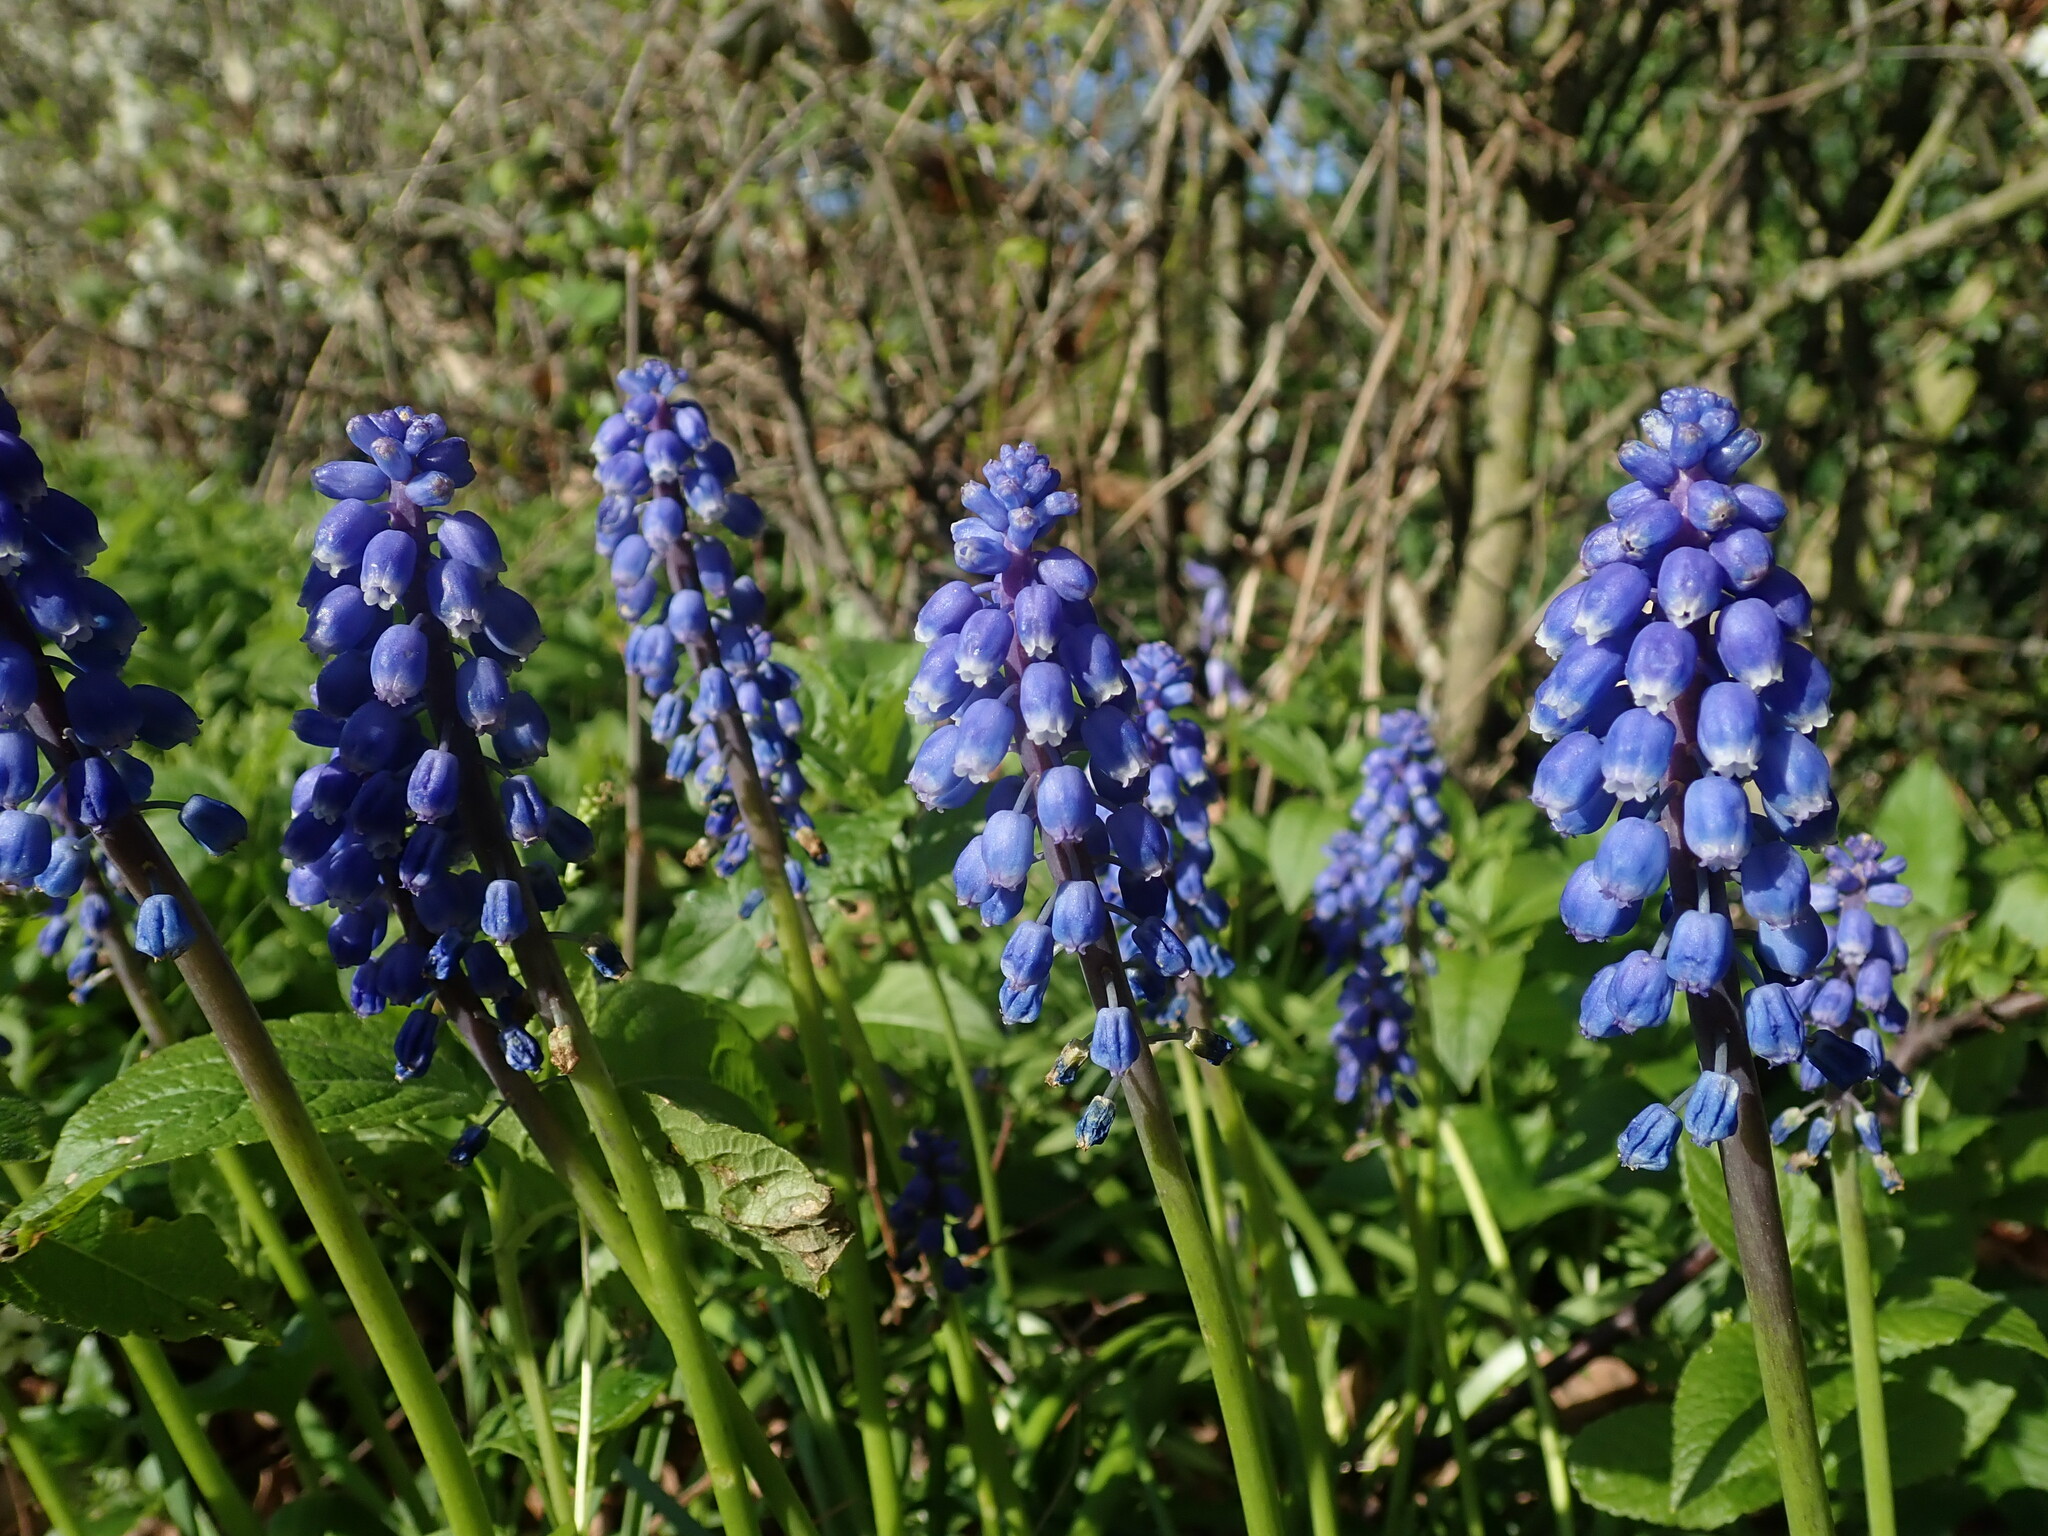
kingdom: Plantae
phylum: Tracheophyta
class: Liliopsida
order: Asparagales
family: Asparagaceae
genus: Muscari
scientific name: Muscari armeniacum
